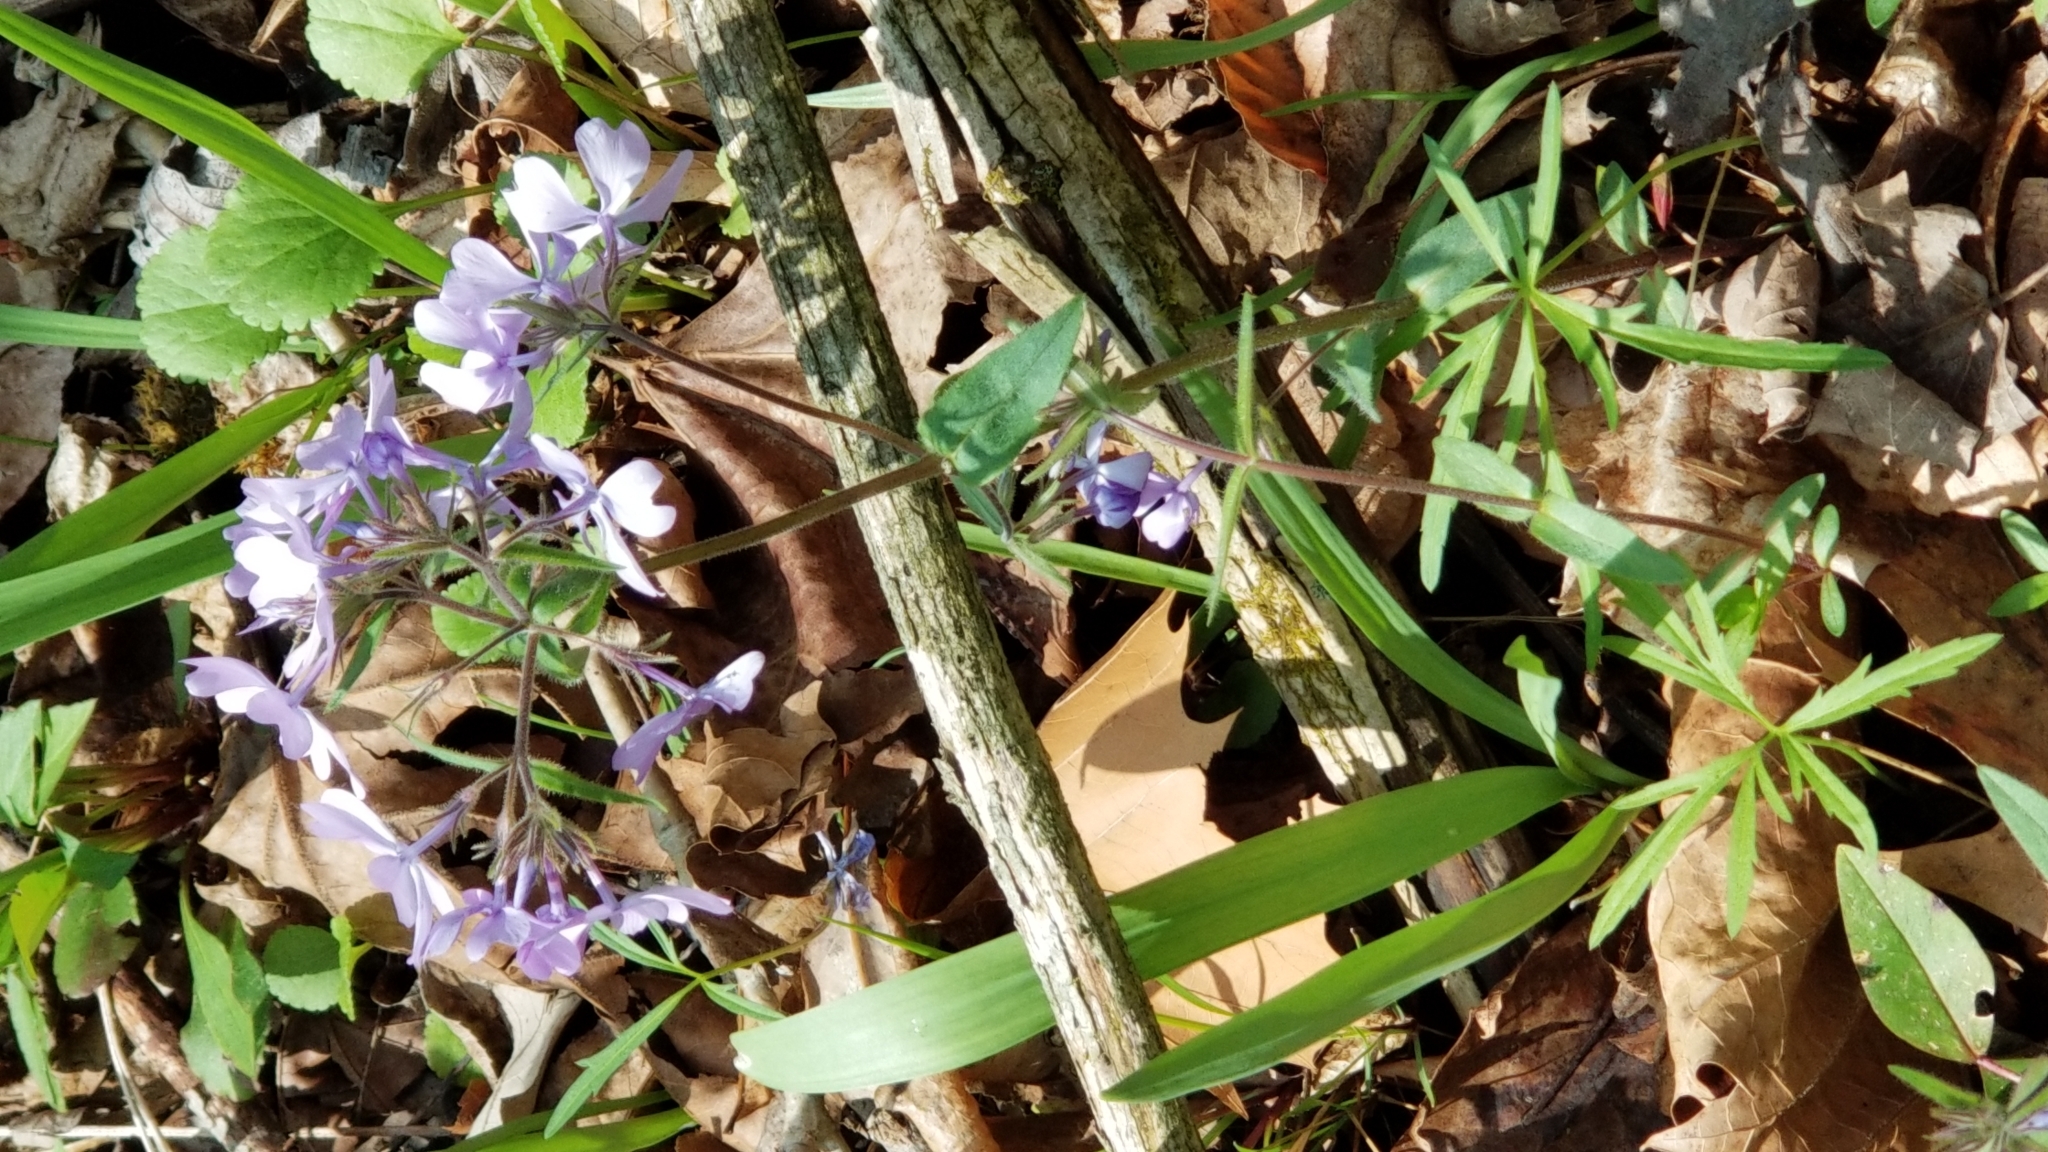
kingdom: Plantae
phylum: Tracheophyta
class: Magnoliopsida
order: Ericales
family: Polemoniaceae
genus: Phlox
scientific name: Phlox divaricata
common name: Blue phlox
